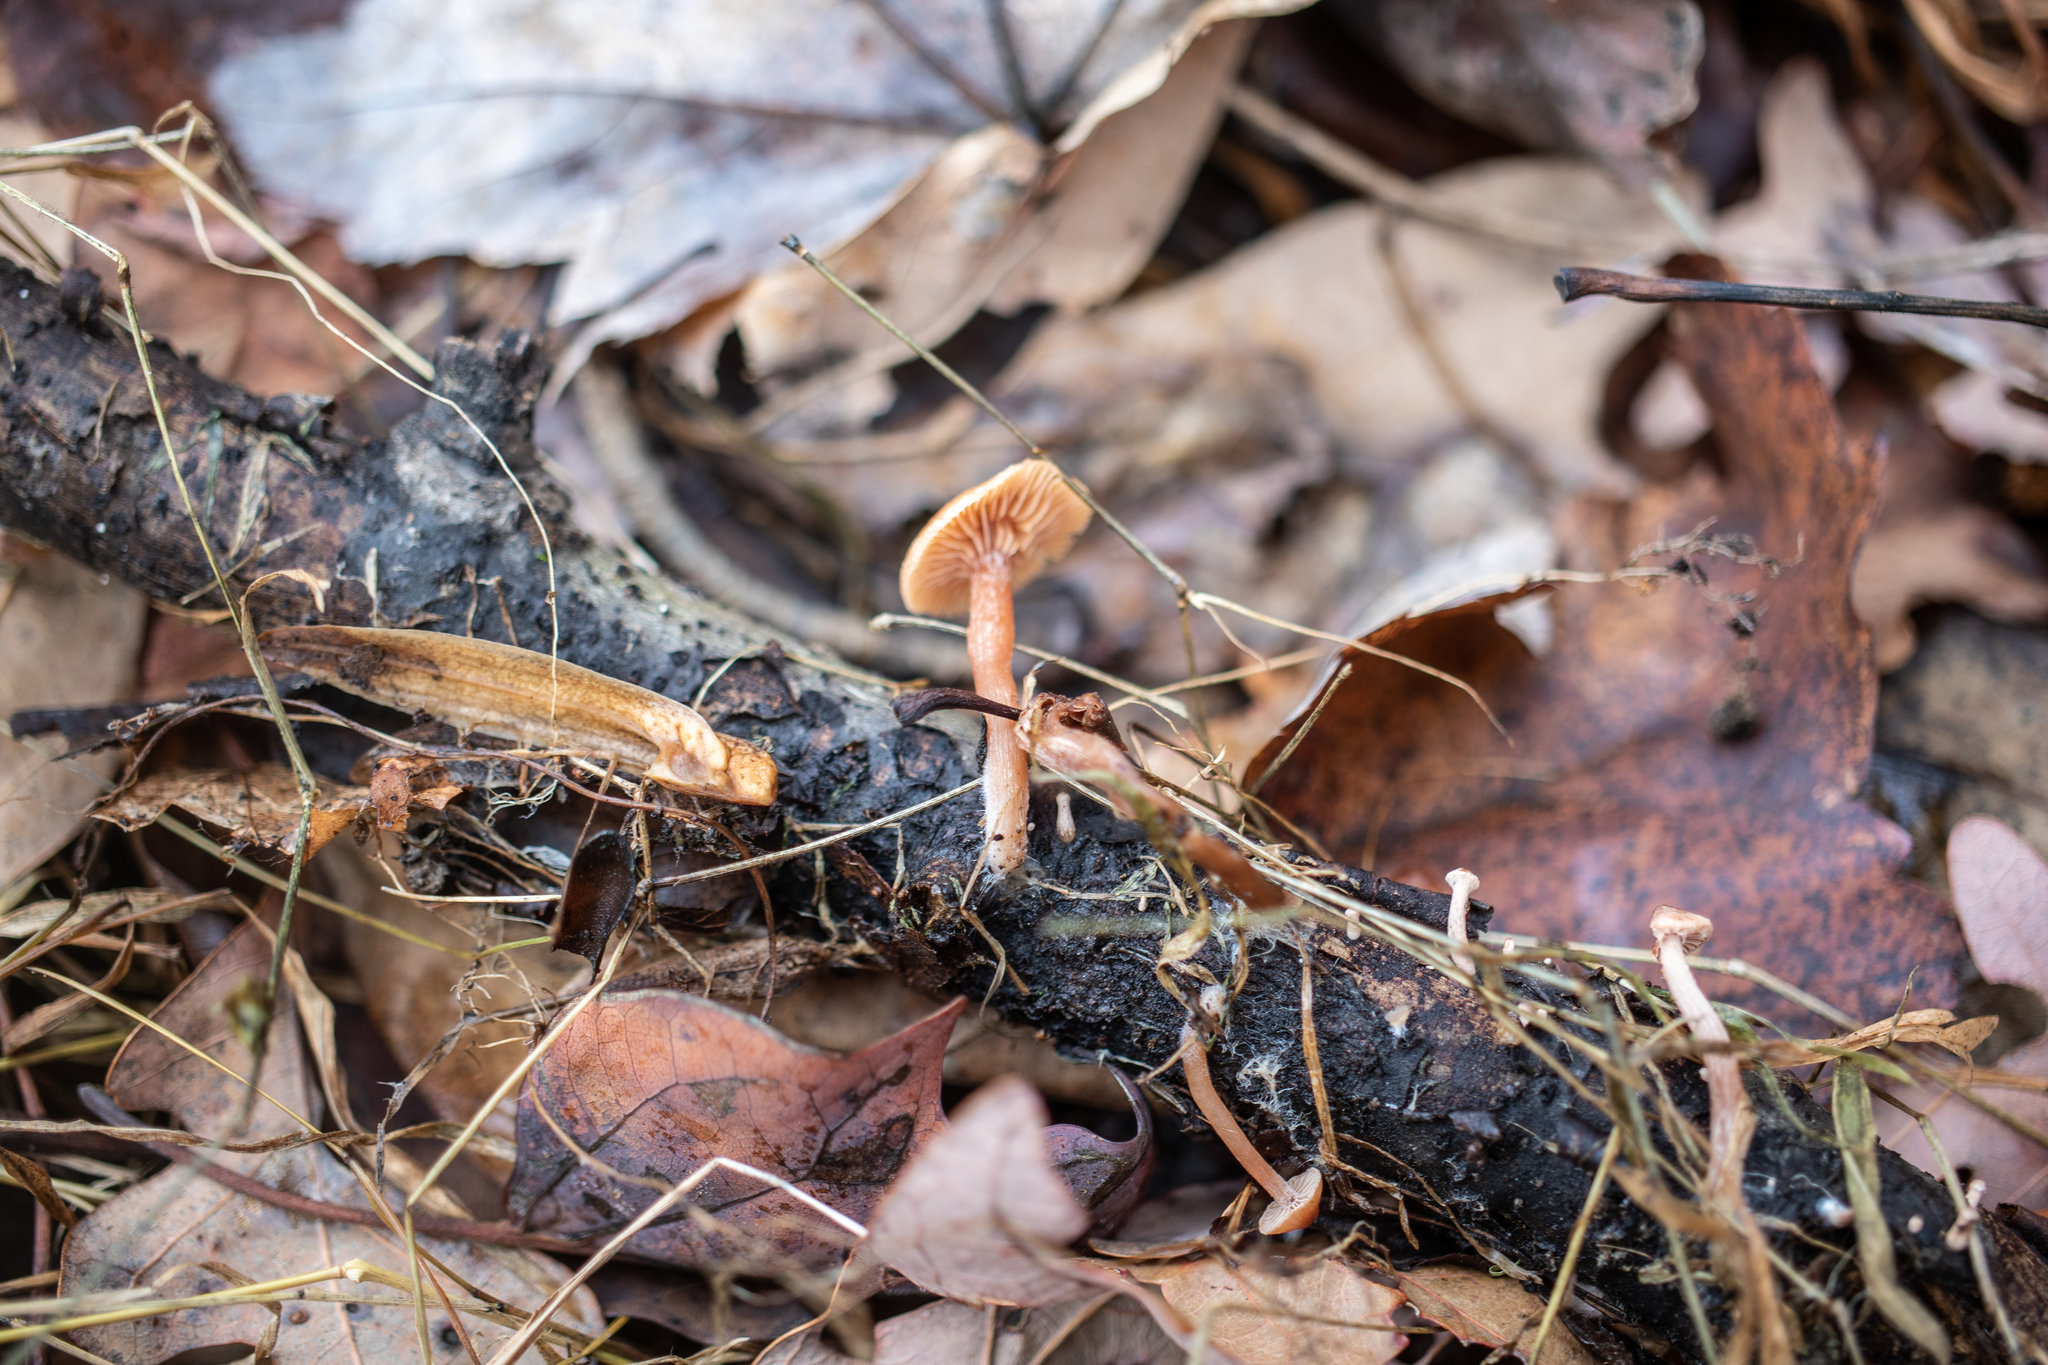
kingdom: Fungi
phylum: Basidiomycota
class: Agaricomycetes
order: Agaricales
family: Tubariaceae
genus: Tubaria
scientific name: Tubaria furfuracea
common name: Scurfy twiglet
